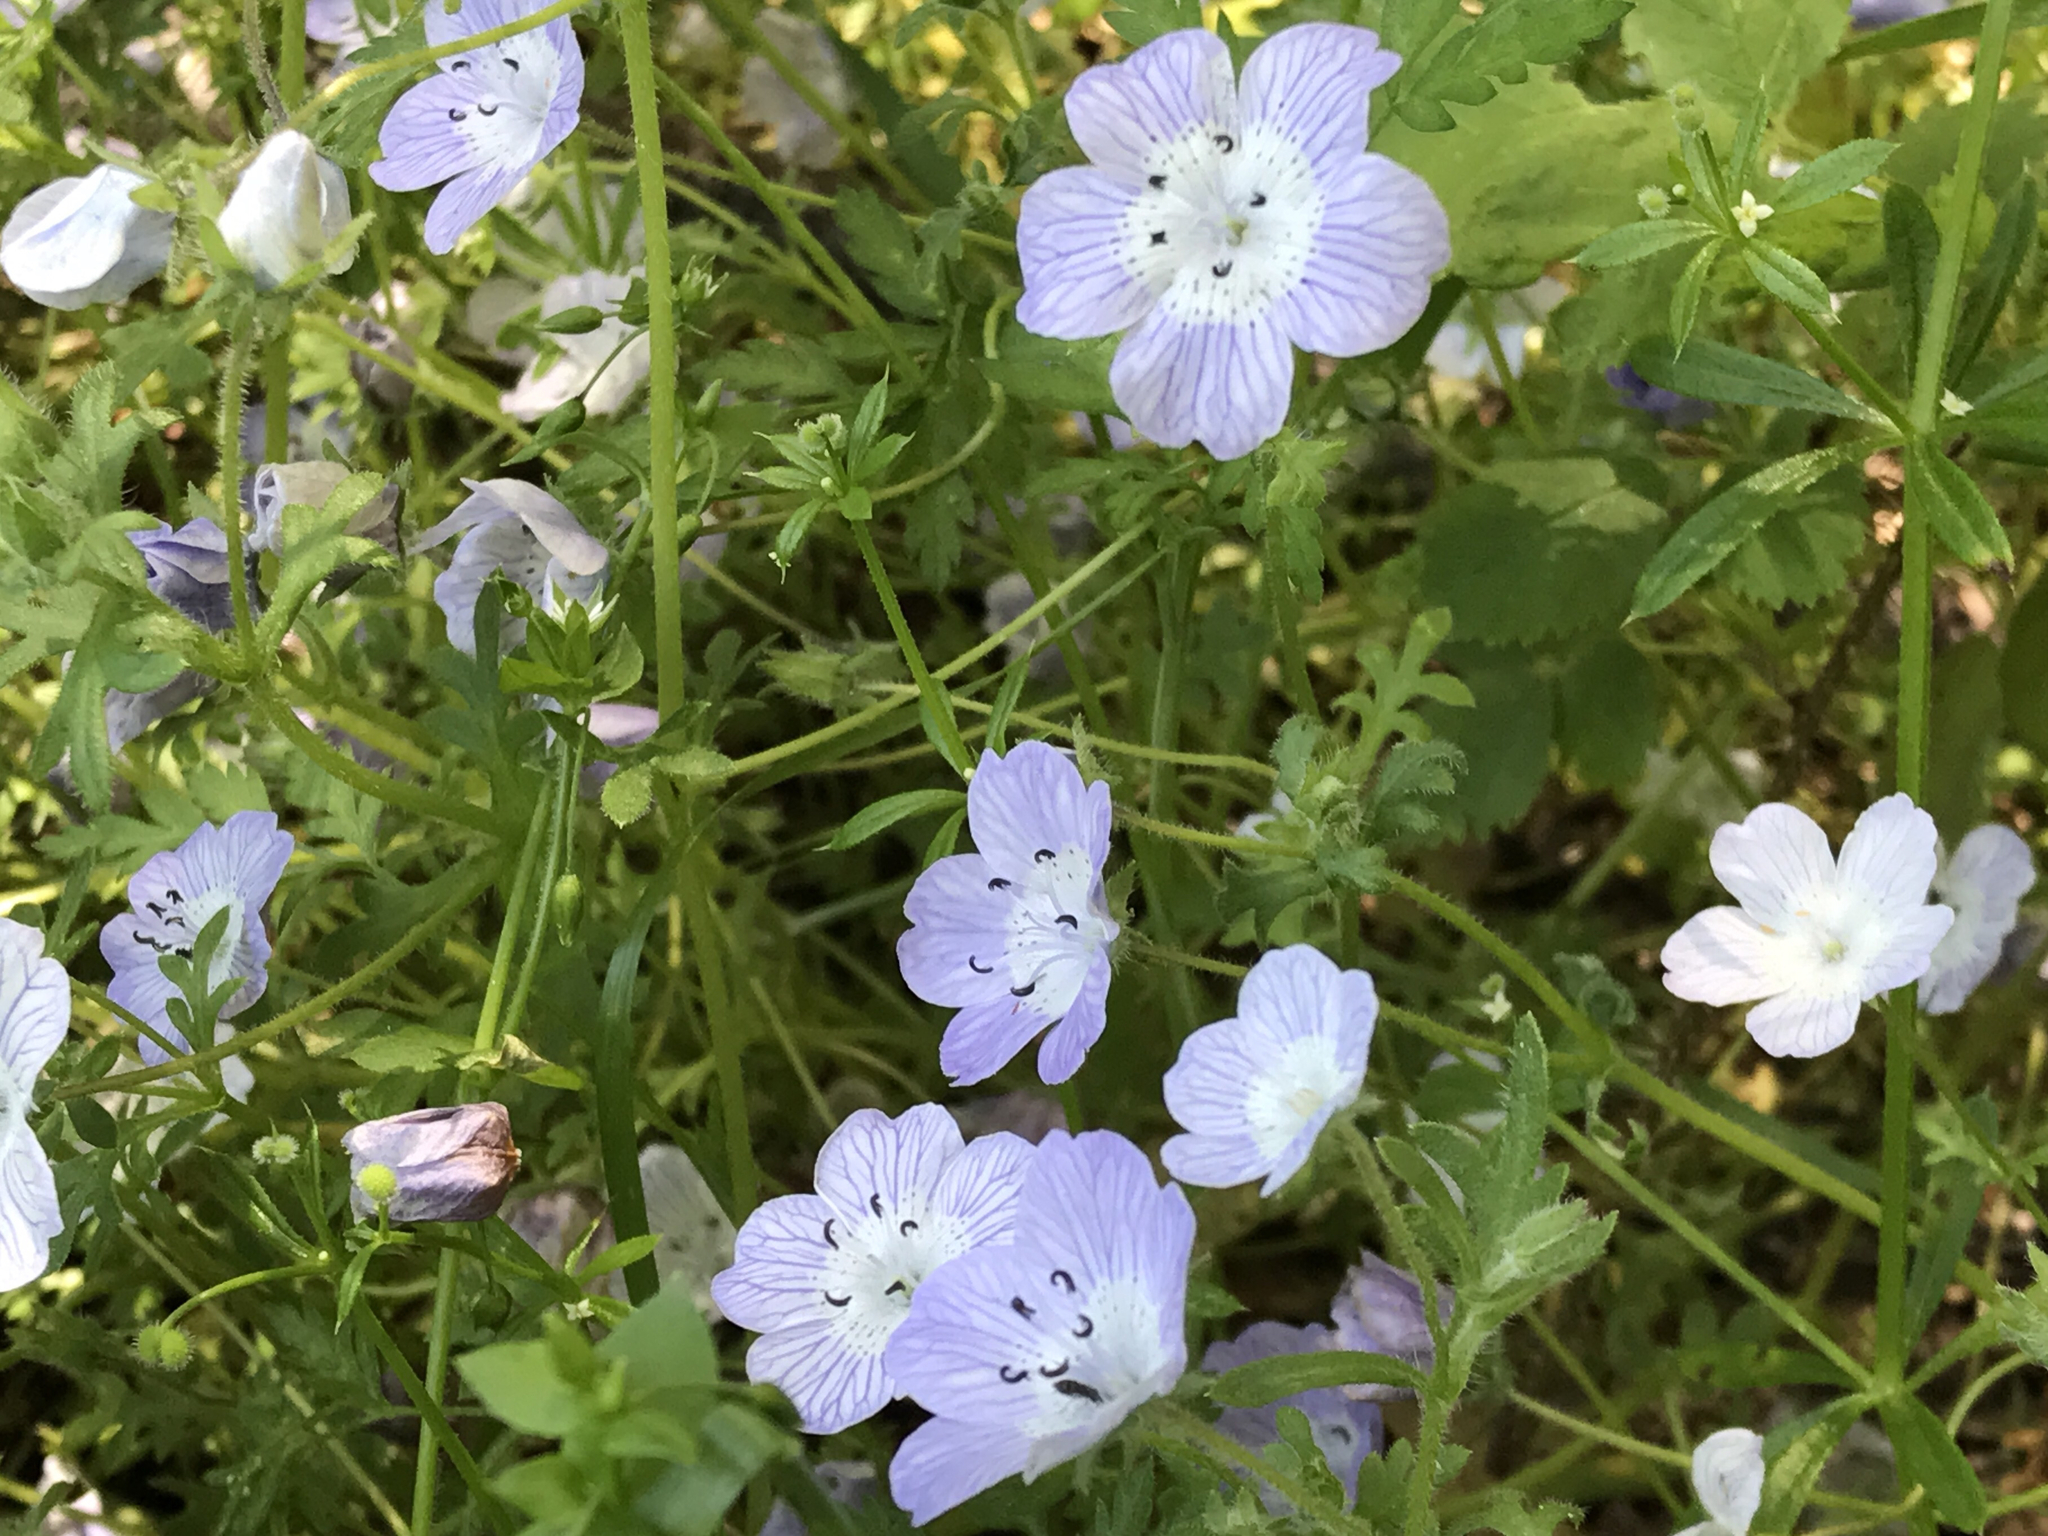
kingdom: Plantae
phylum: Tracheophyta
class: Magnoliopsida
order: Boraginales
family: Hydrophyllaceae
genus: Nemophila
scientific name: Nemophila menziesii
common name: Baby's-blue-eyes
